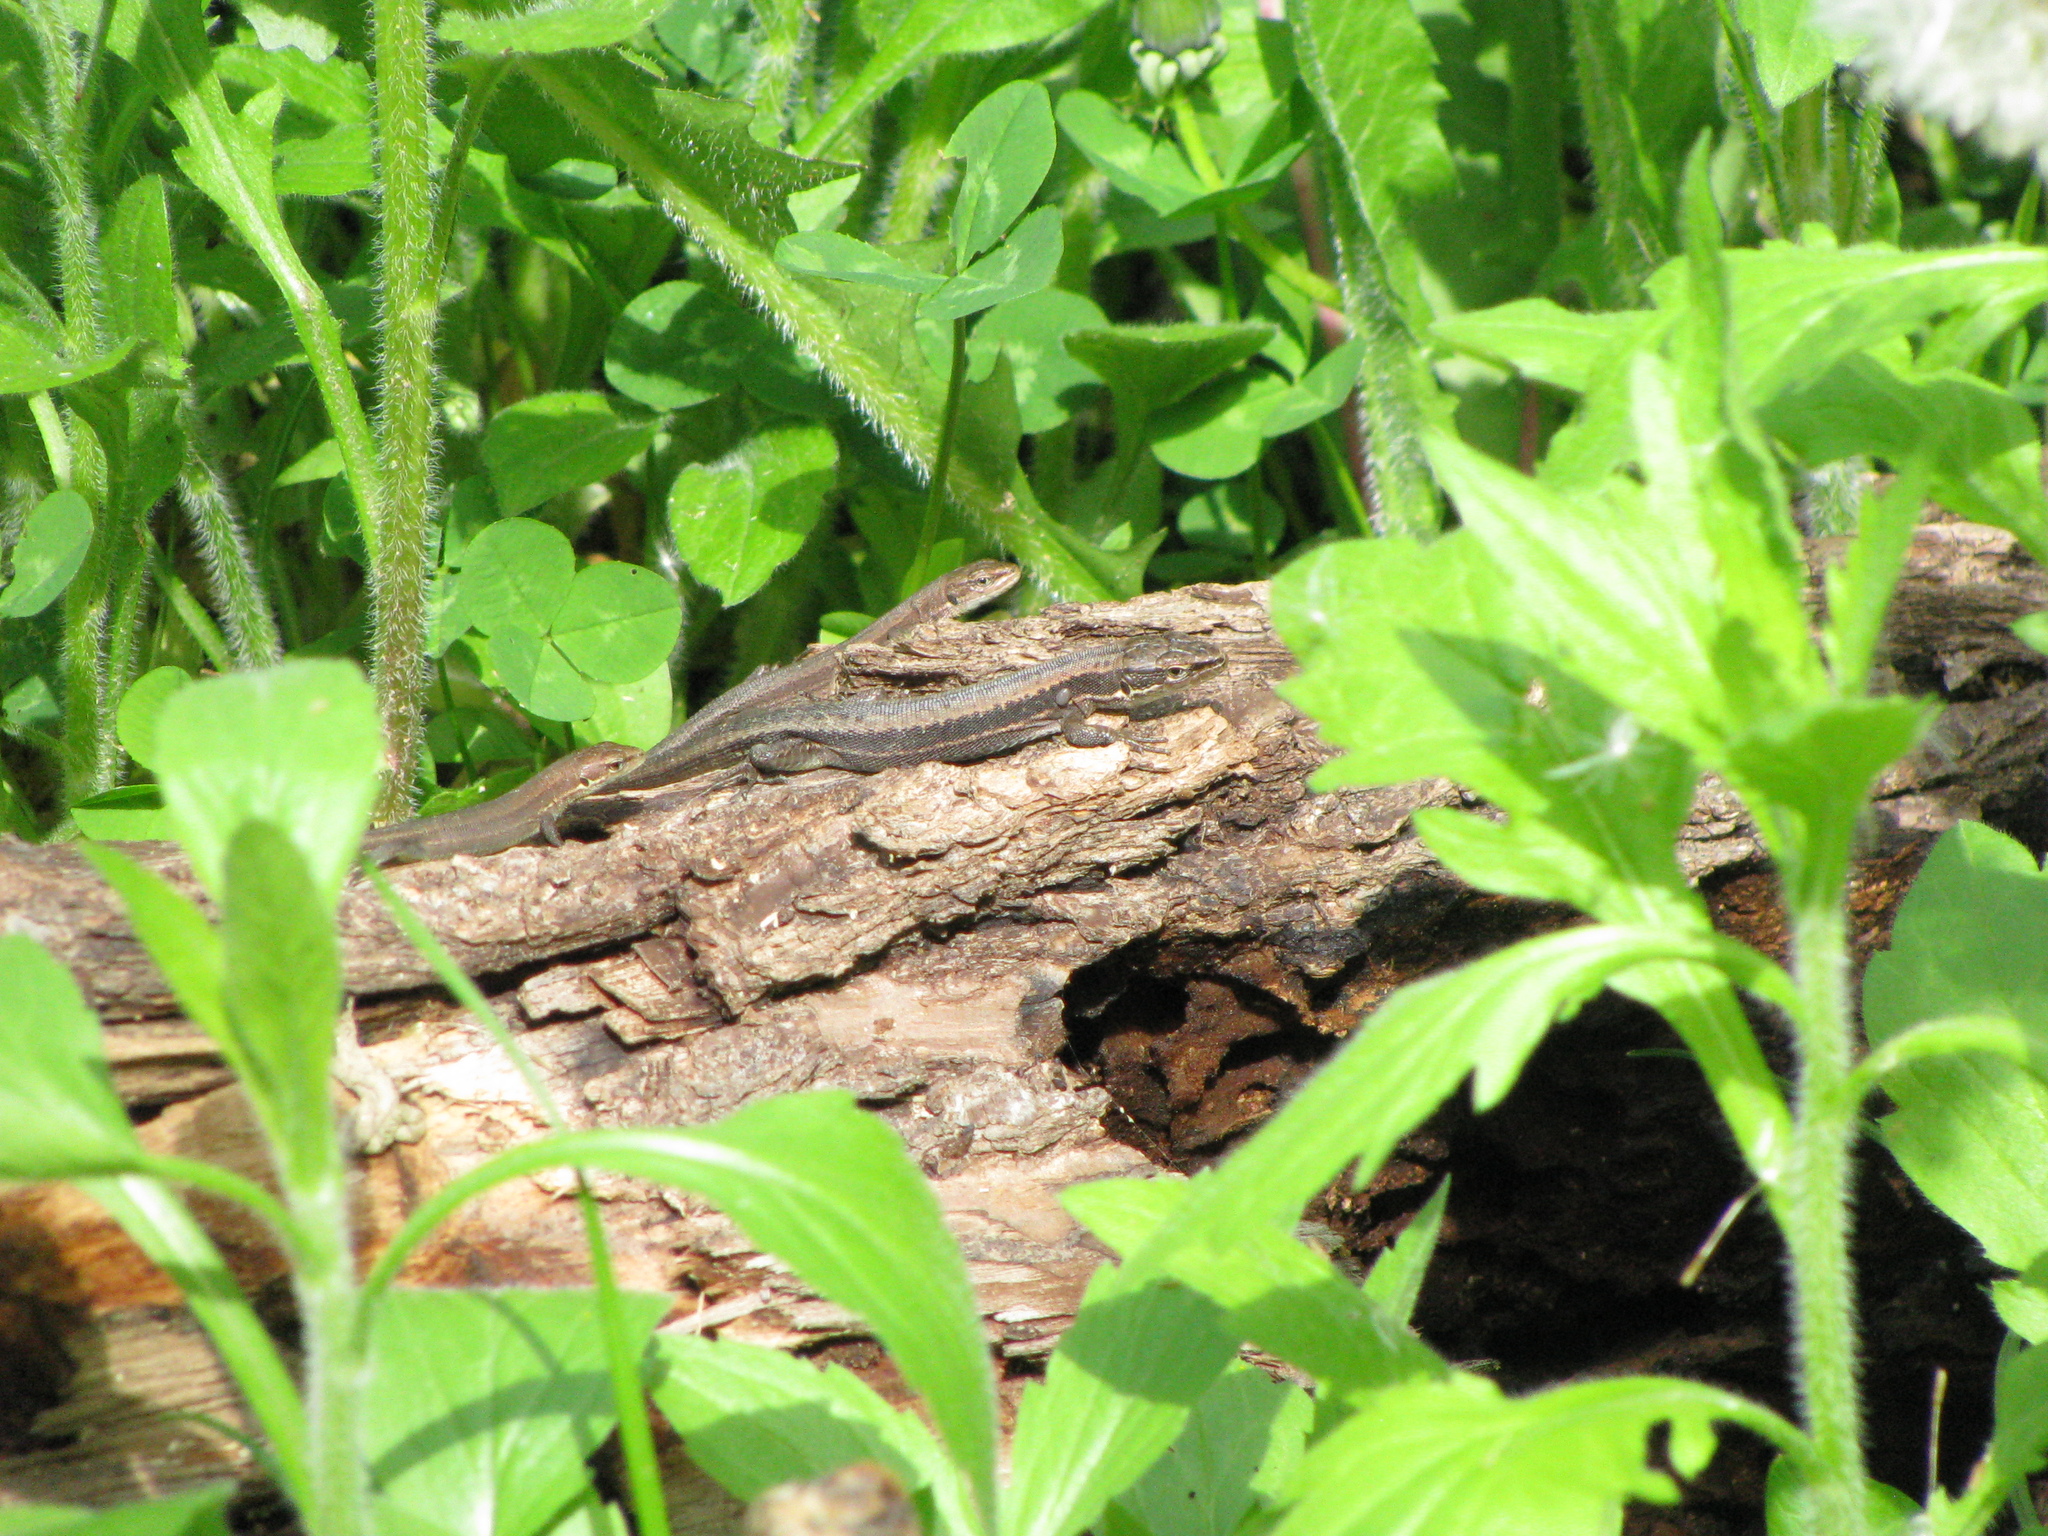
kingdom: Animalia
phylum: Chordata
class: Squamata
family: Lacertidae
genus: Darevskia
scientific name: Darevskia praticola
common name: Meadow lizard
